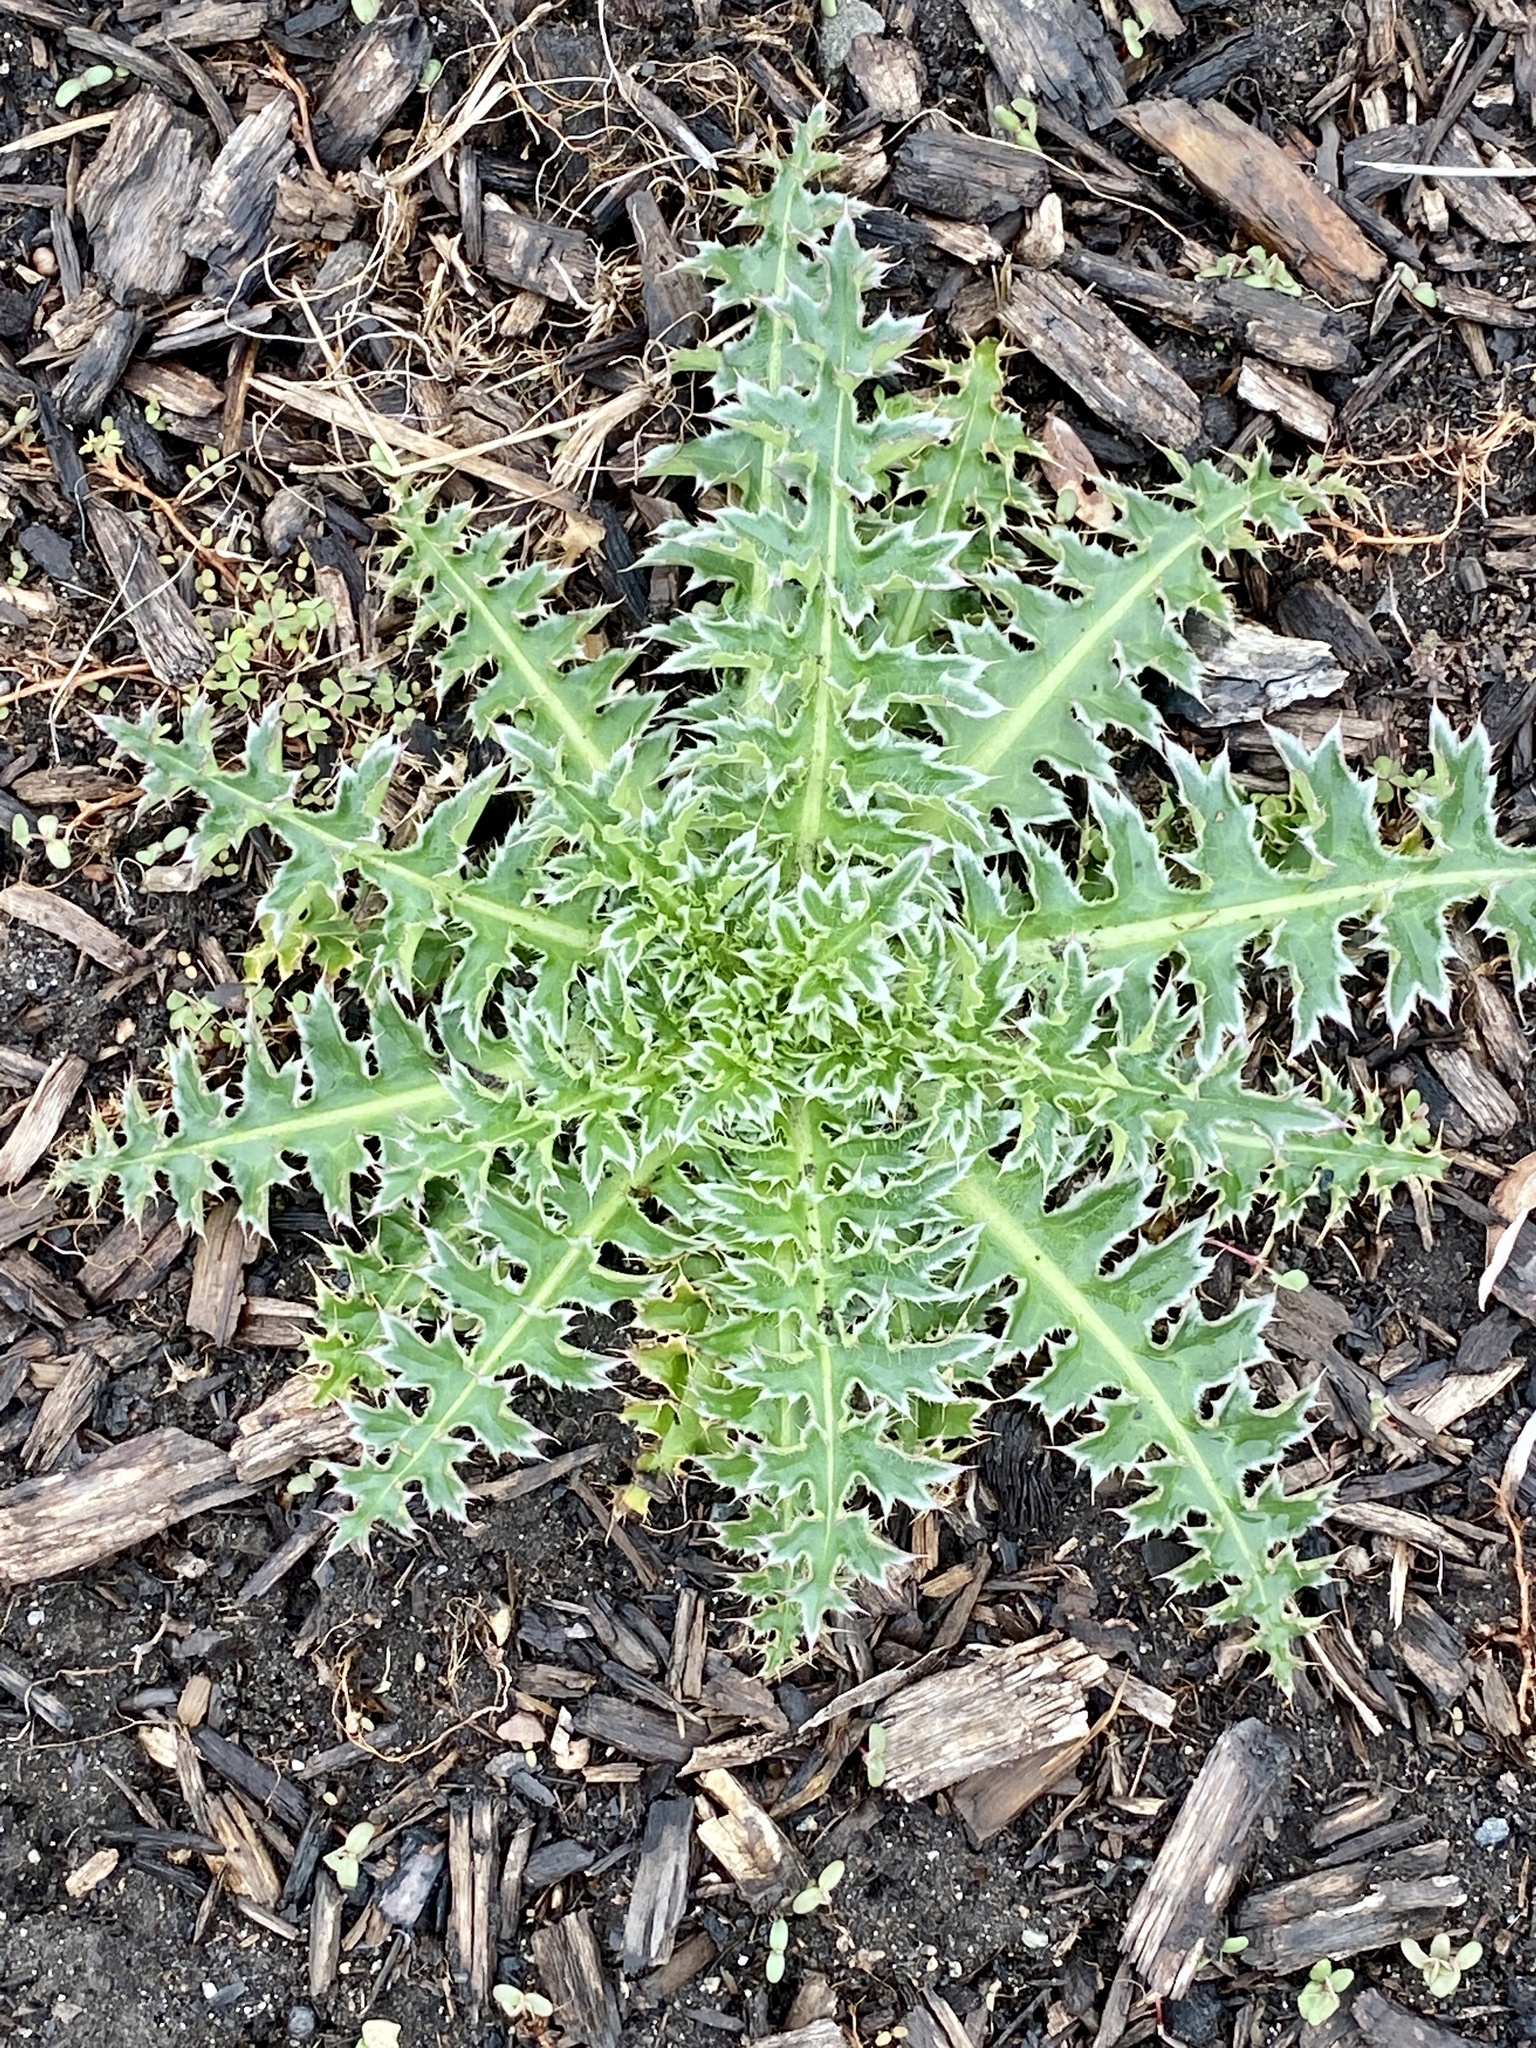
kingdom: Plantae
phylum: Tracheophyta
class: Magnoliopsida
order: Asterales
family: Asteraceae
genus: Carduus
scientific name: Carduus nutans
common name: Musk thistle
